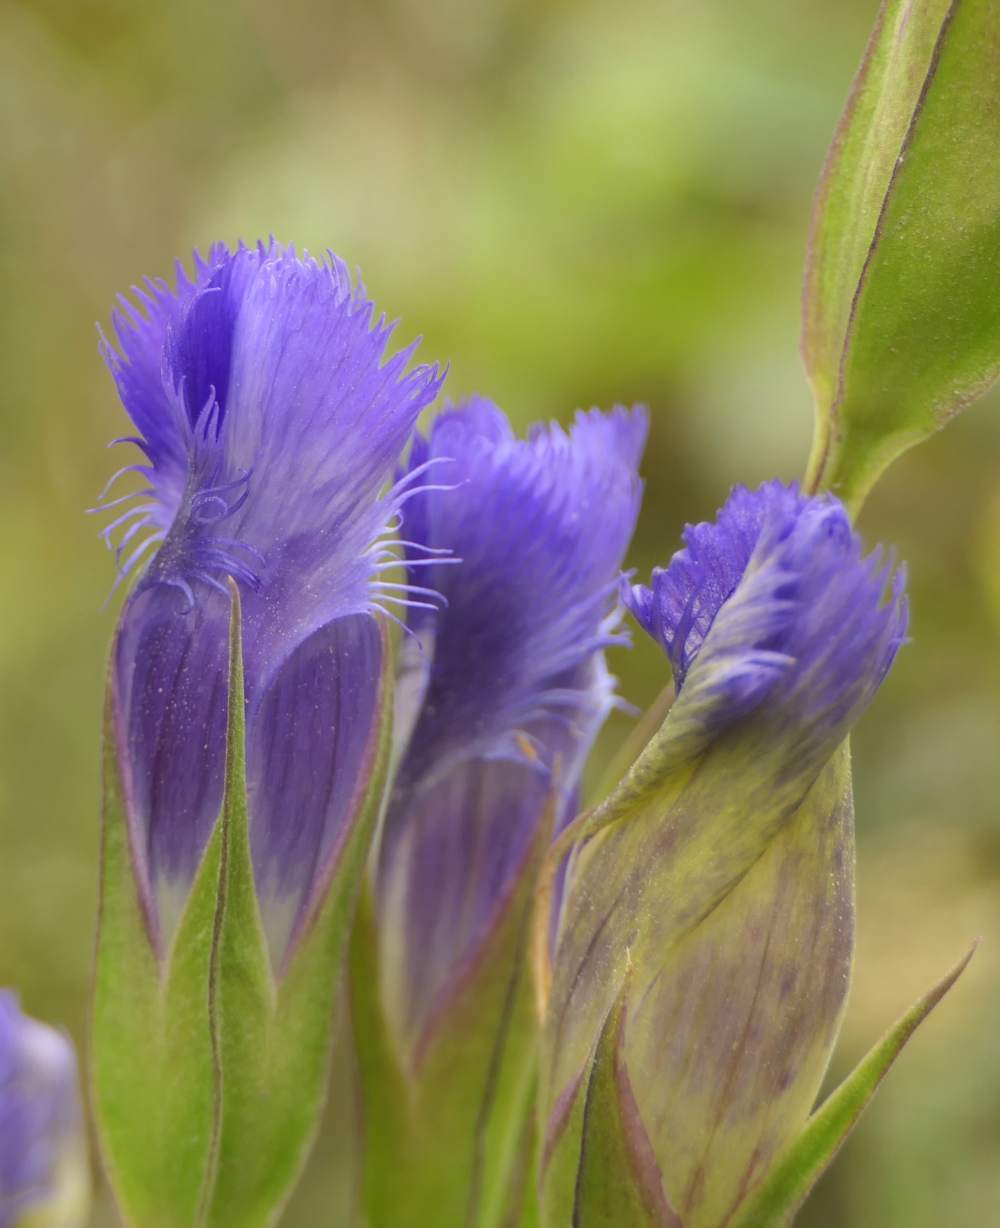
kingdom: Plantae
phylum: Tracheophyta
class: Magnoliopsida
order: Gentianales
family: Gentianaceae
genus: Gentianopsis
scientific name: Gentianopsis crinita
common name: Fringed-gentian
